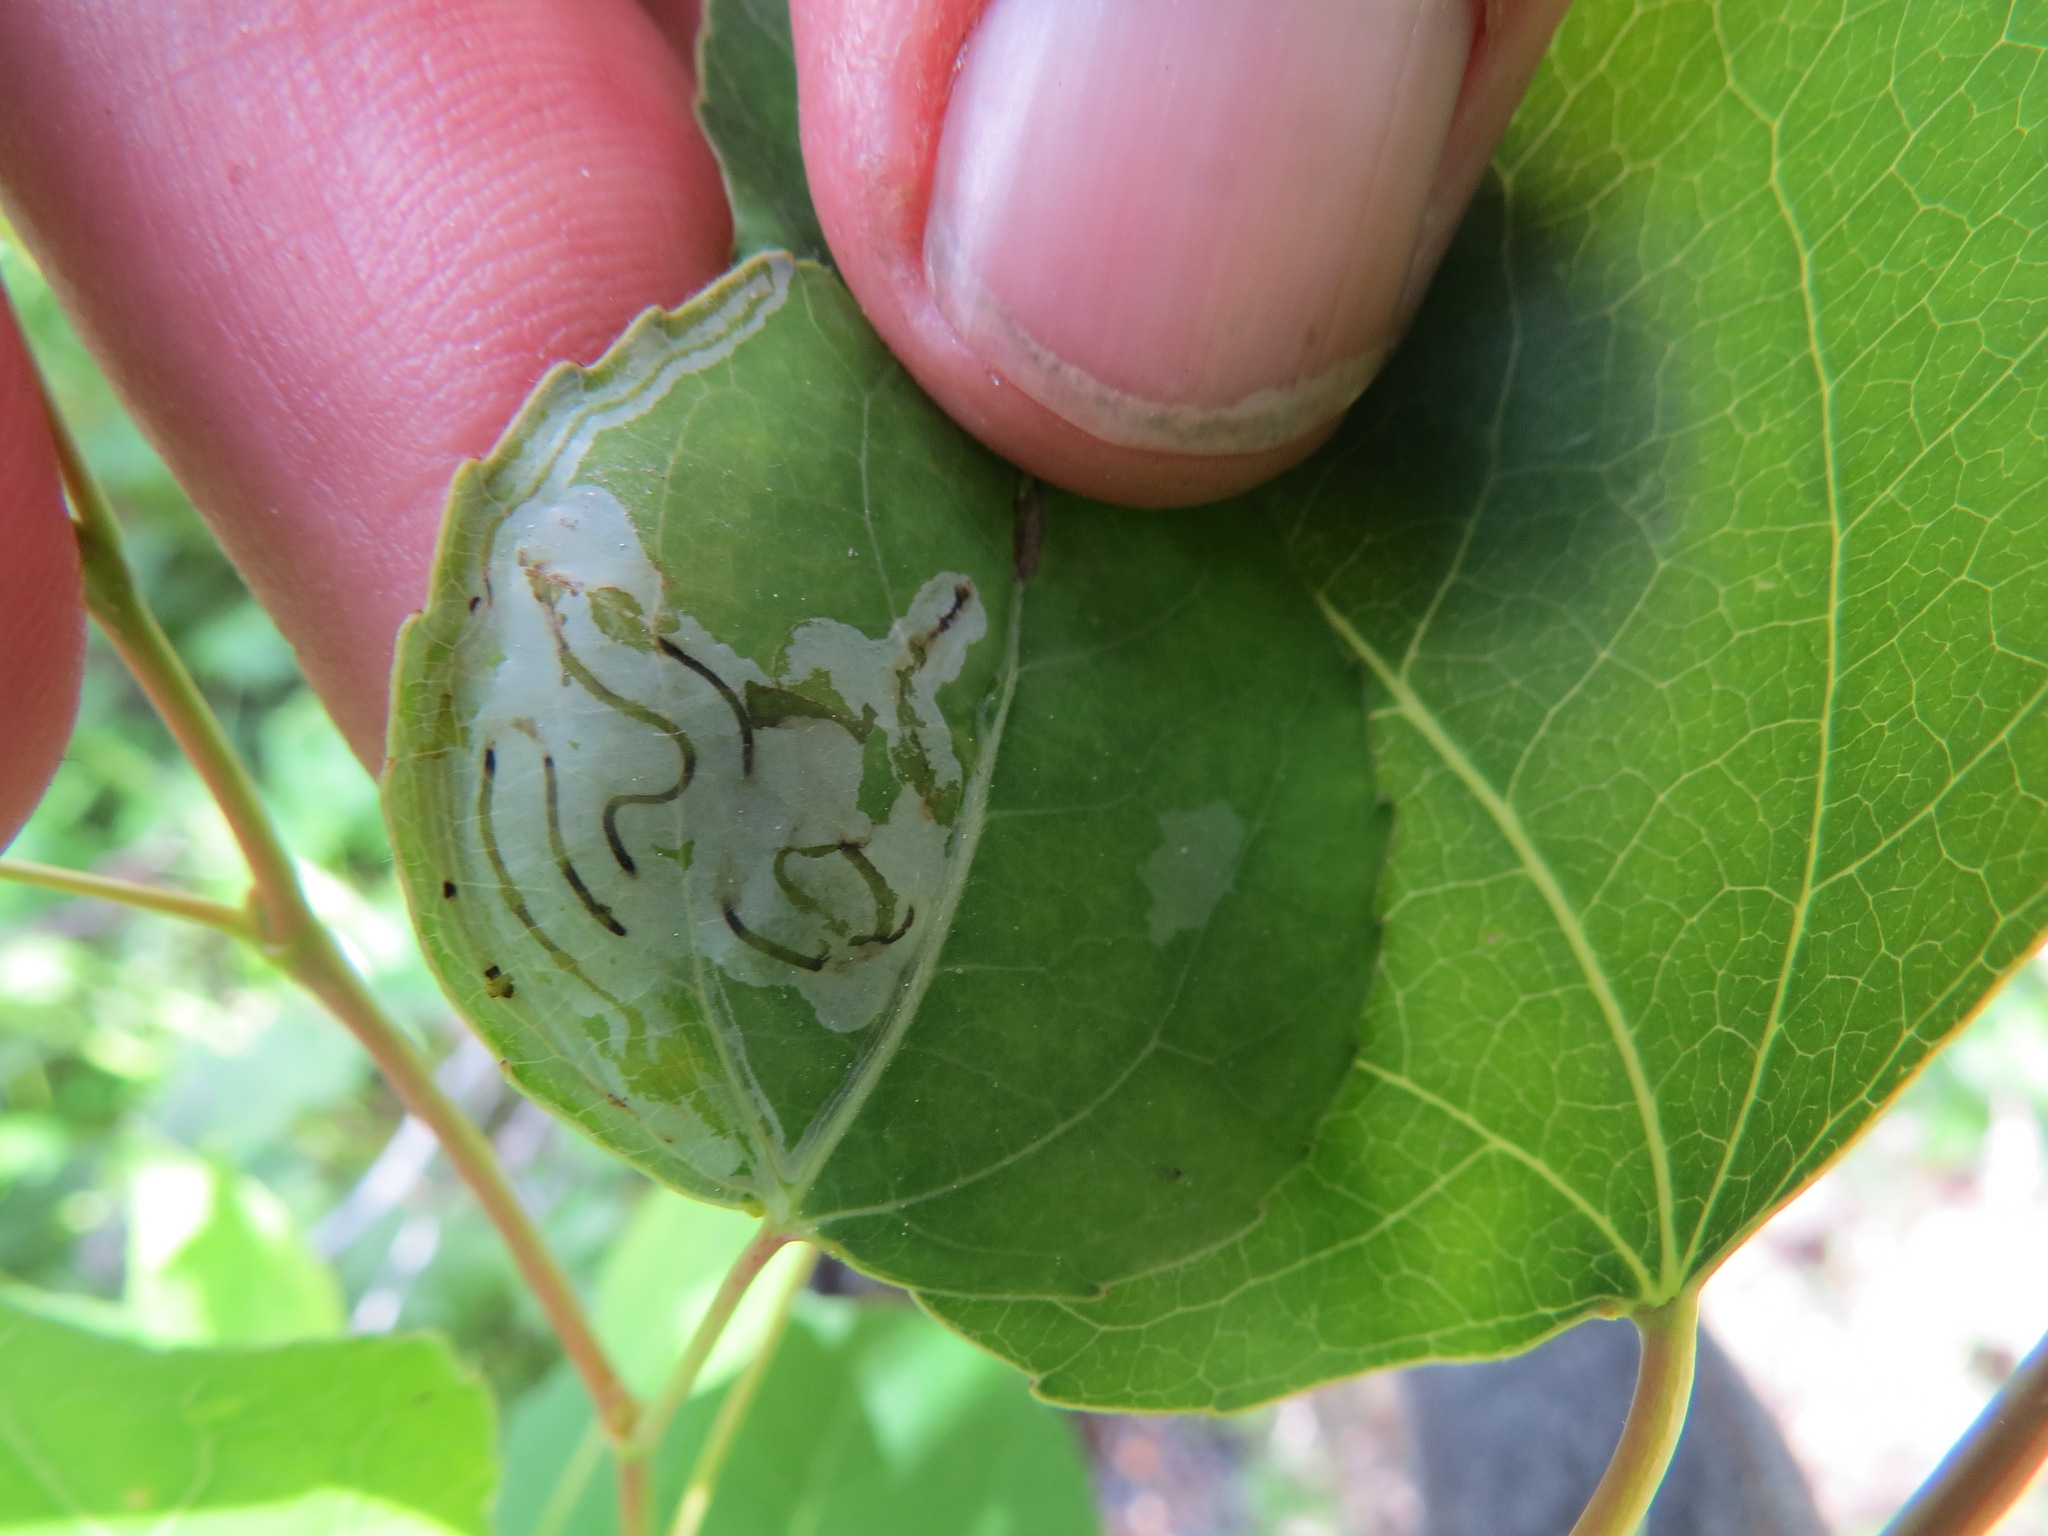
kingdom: Animalia
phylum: Arthropoda
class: Insecta
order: Lepidoptera
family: Gracillariidae
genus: Phyllocnistis
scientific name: Phyllocnistis populiella
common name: Aspen serpentine leafminer moth
